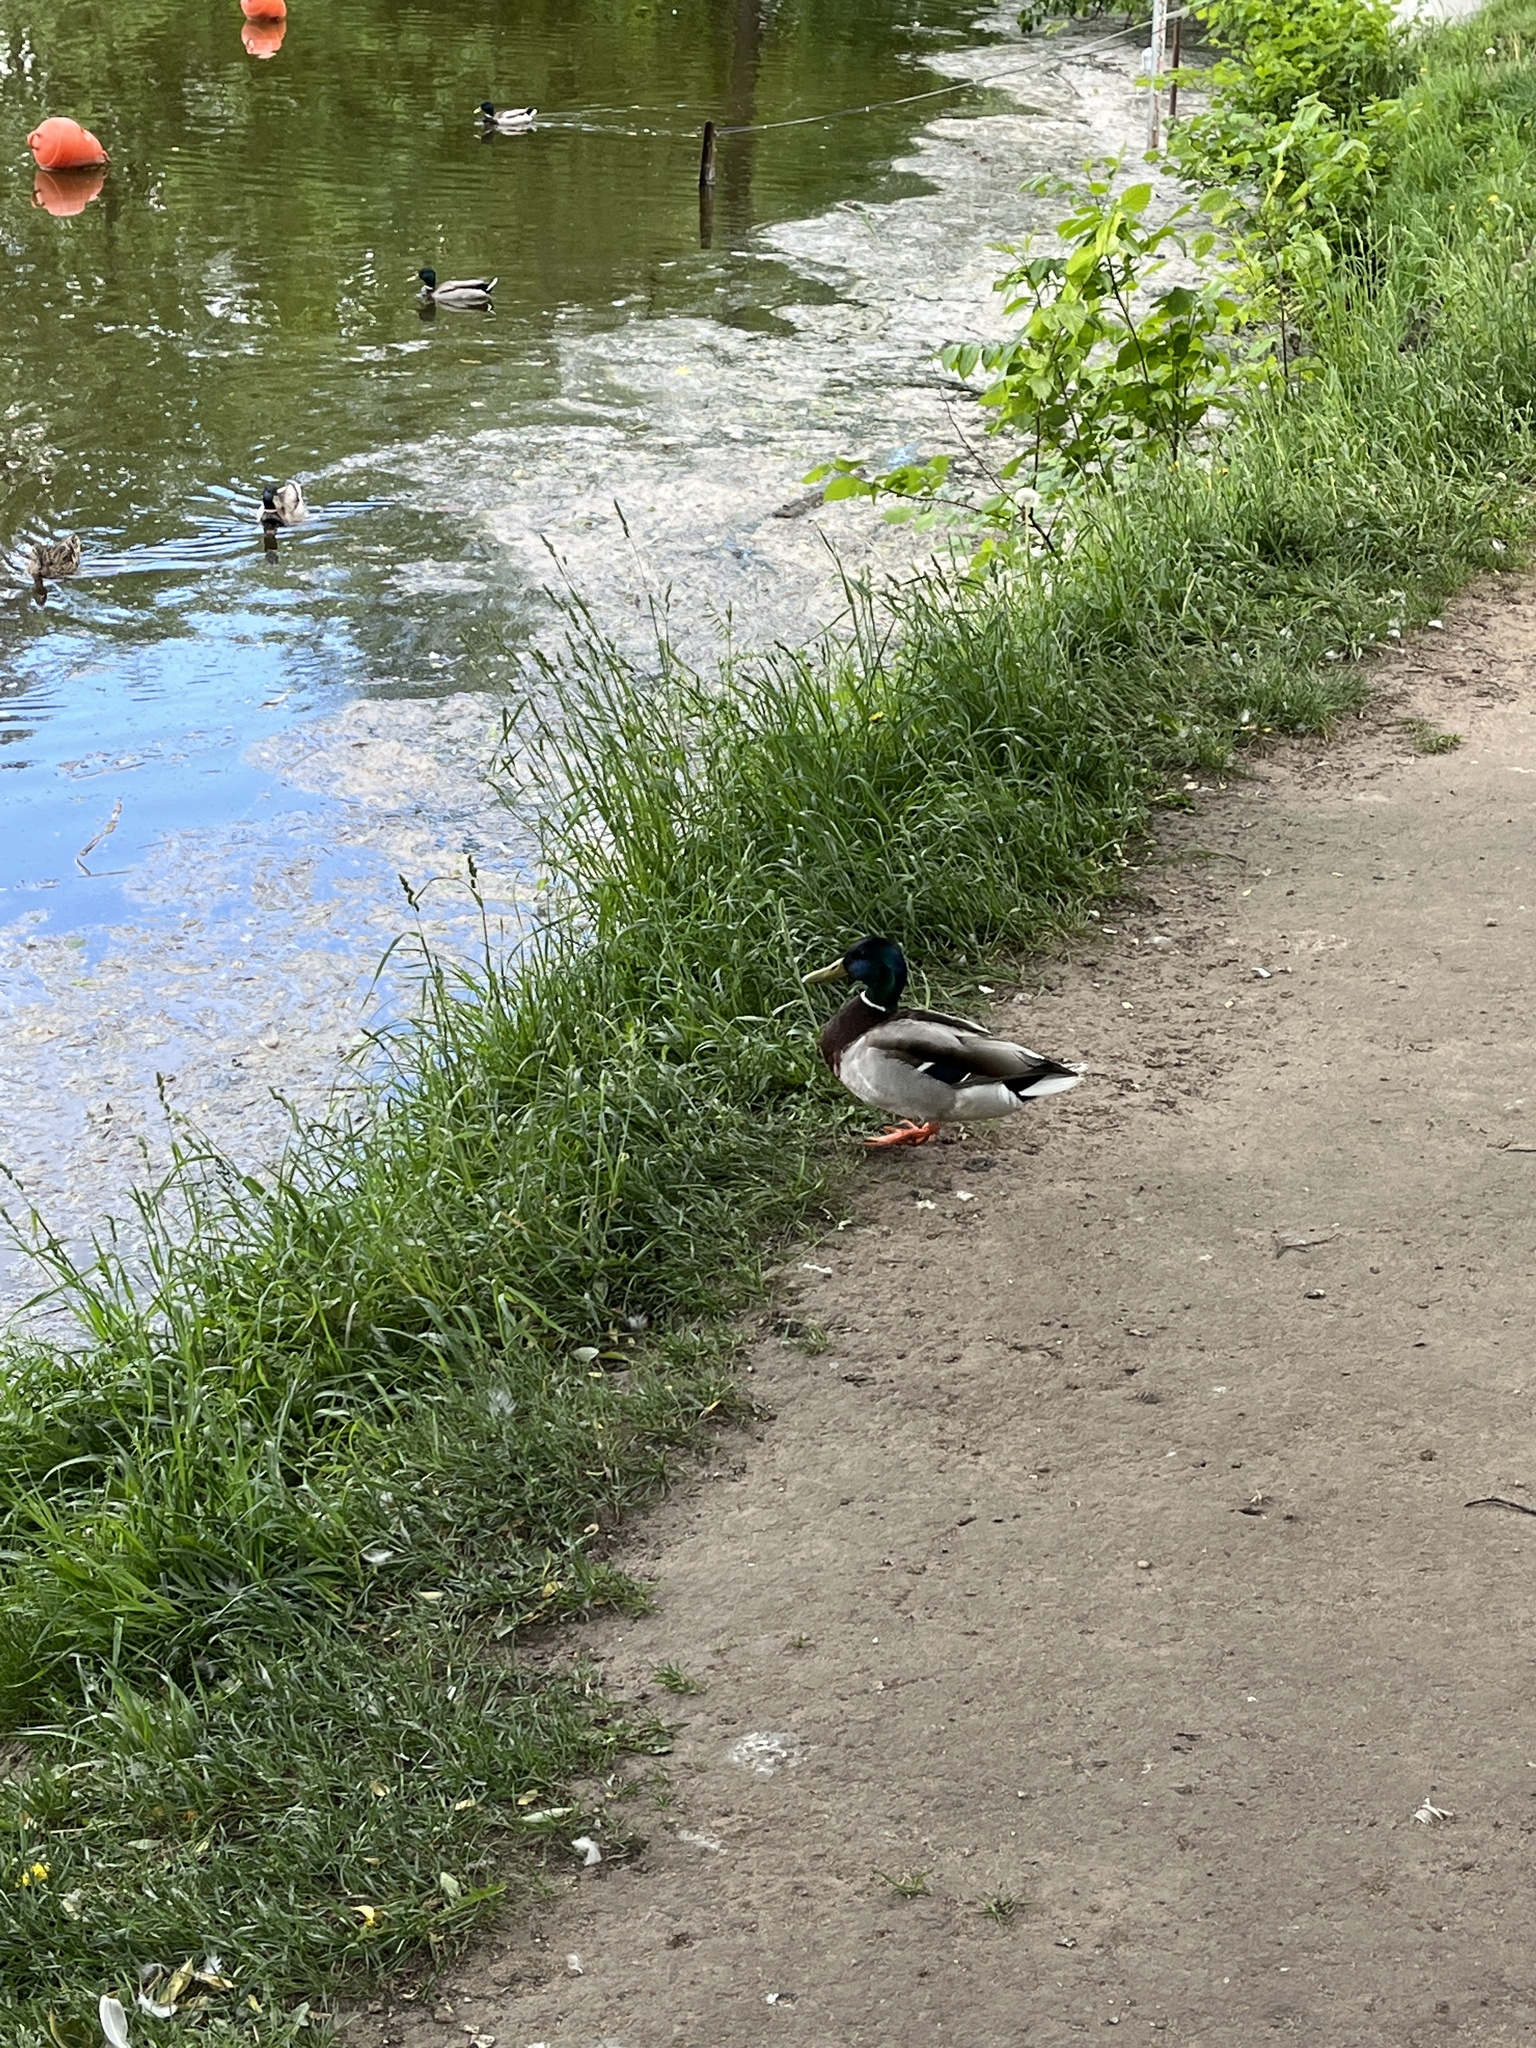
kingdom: Animalia
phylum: Chordata
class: Aves
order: Anseriformes
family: Anatidae
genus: Anas
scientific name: Anas platyrhynchos
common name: Mallard
